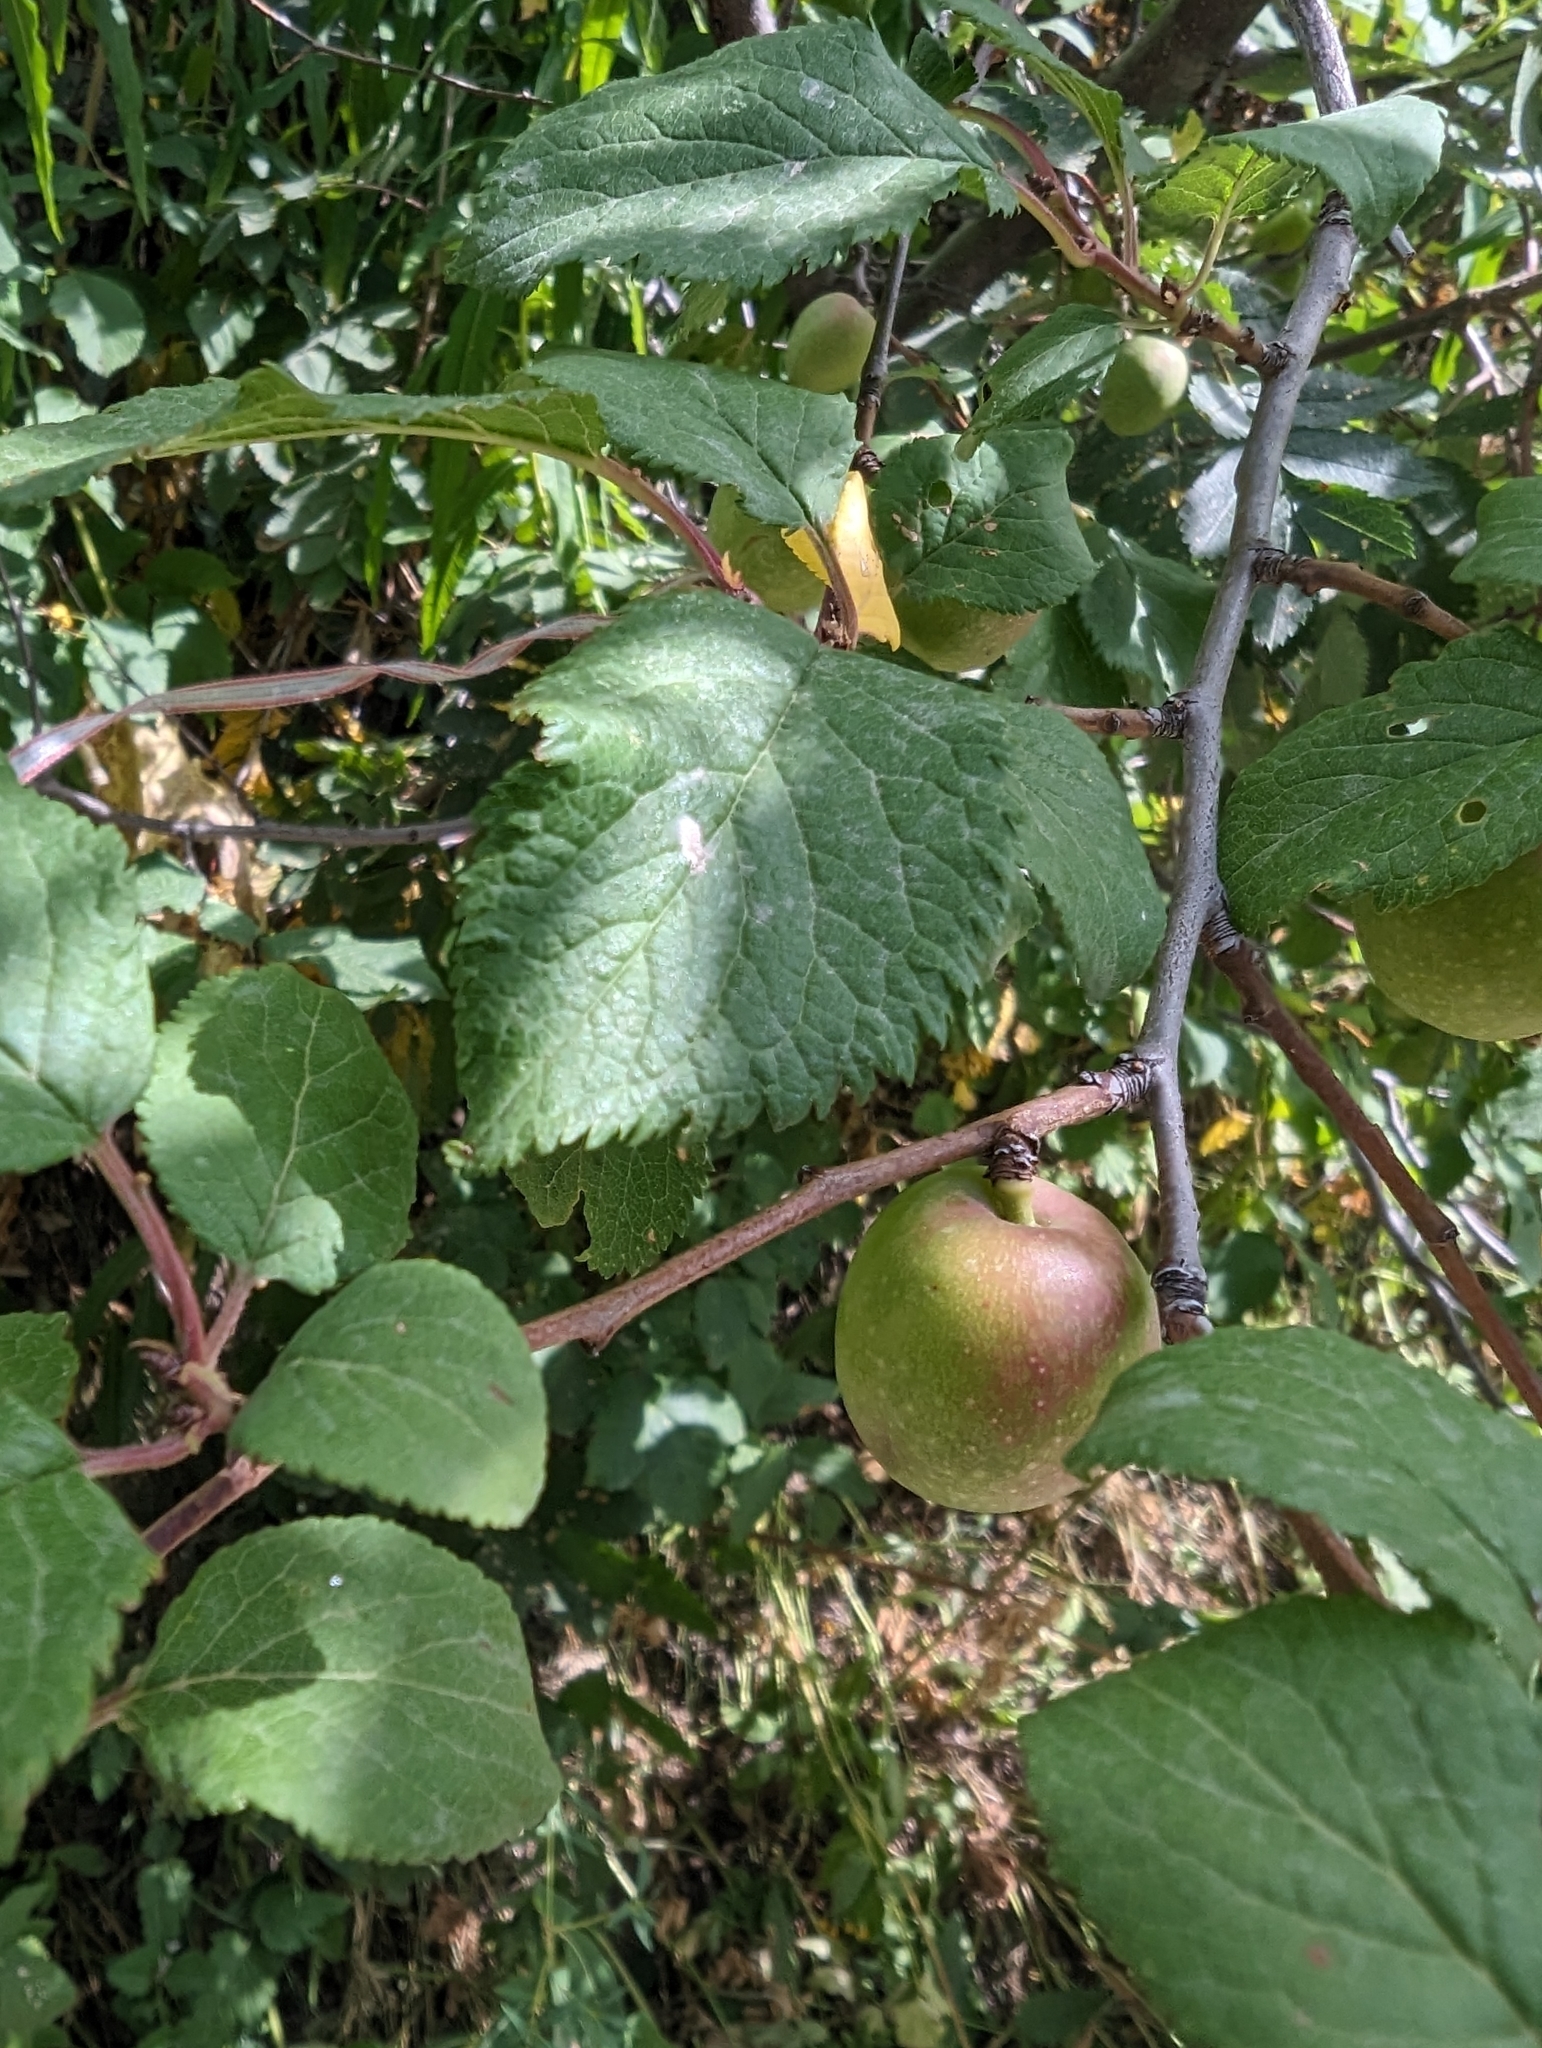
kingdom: Plantae
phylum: Tracheophyta
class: Magnoliopsida
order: Rosales
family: Rosaceae
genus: Prunus
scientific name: Prunus brigantina
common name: Briançon apricot
